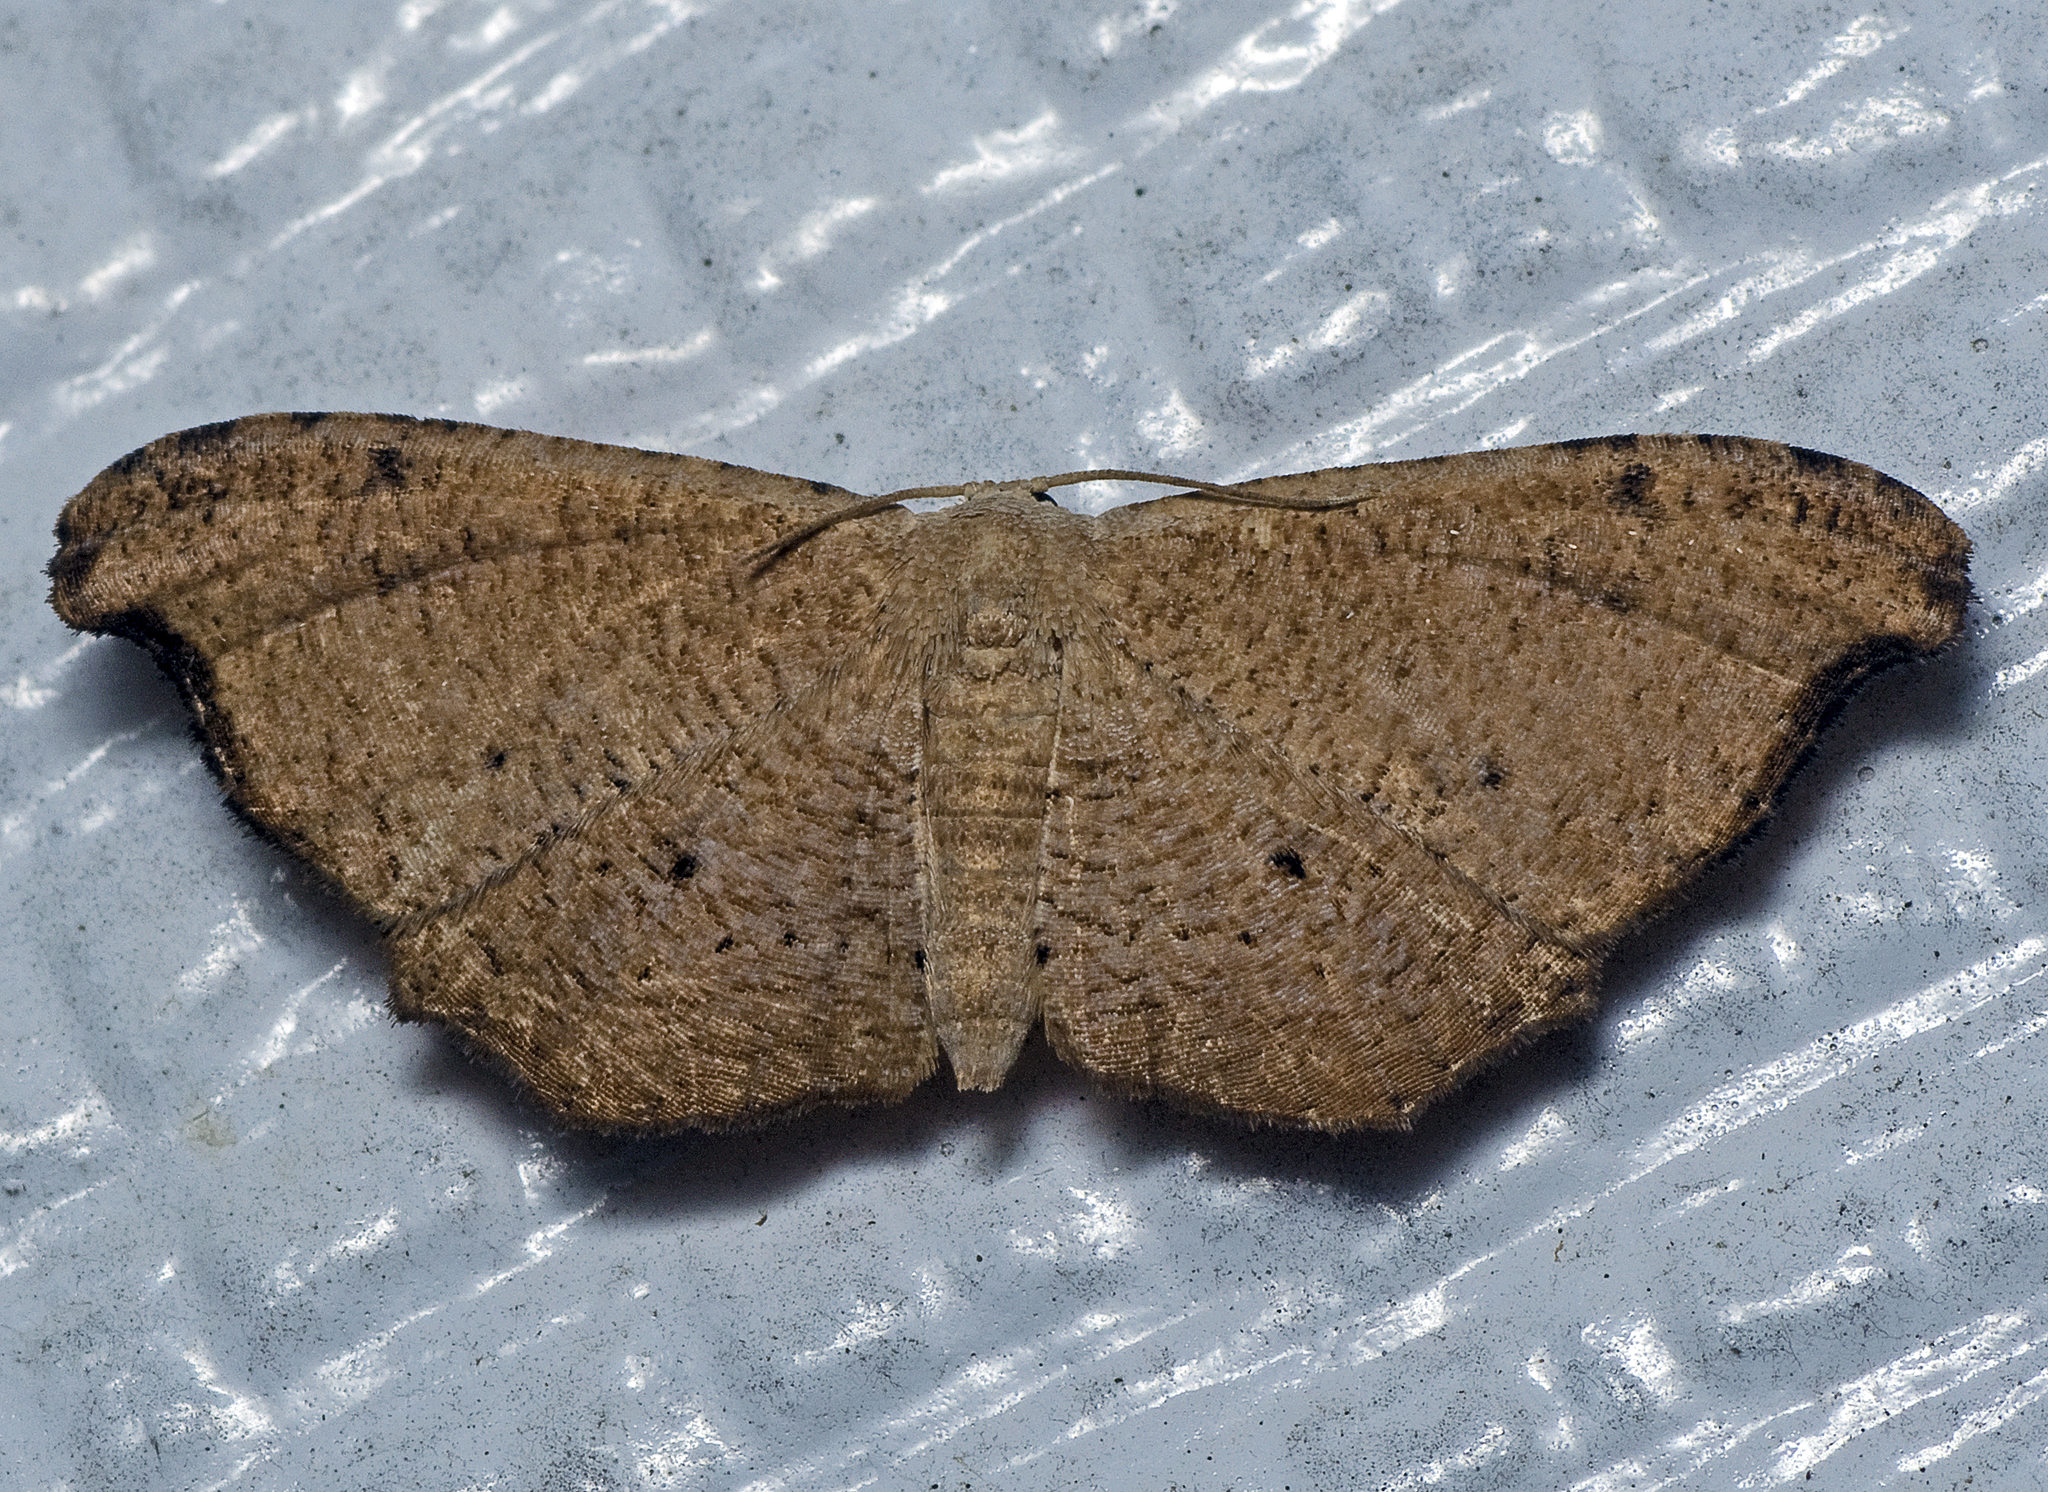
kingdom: Animalia
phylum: Arthropoda
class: Insecta
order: Lepidoptera
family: Uraniidae
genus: Epiplema
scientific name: Epiplema argillodes
